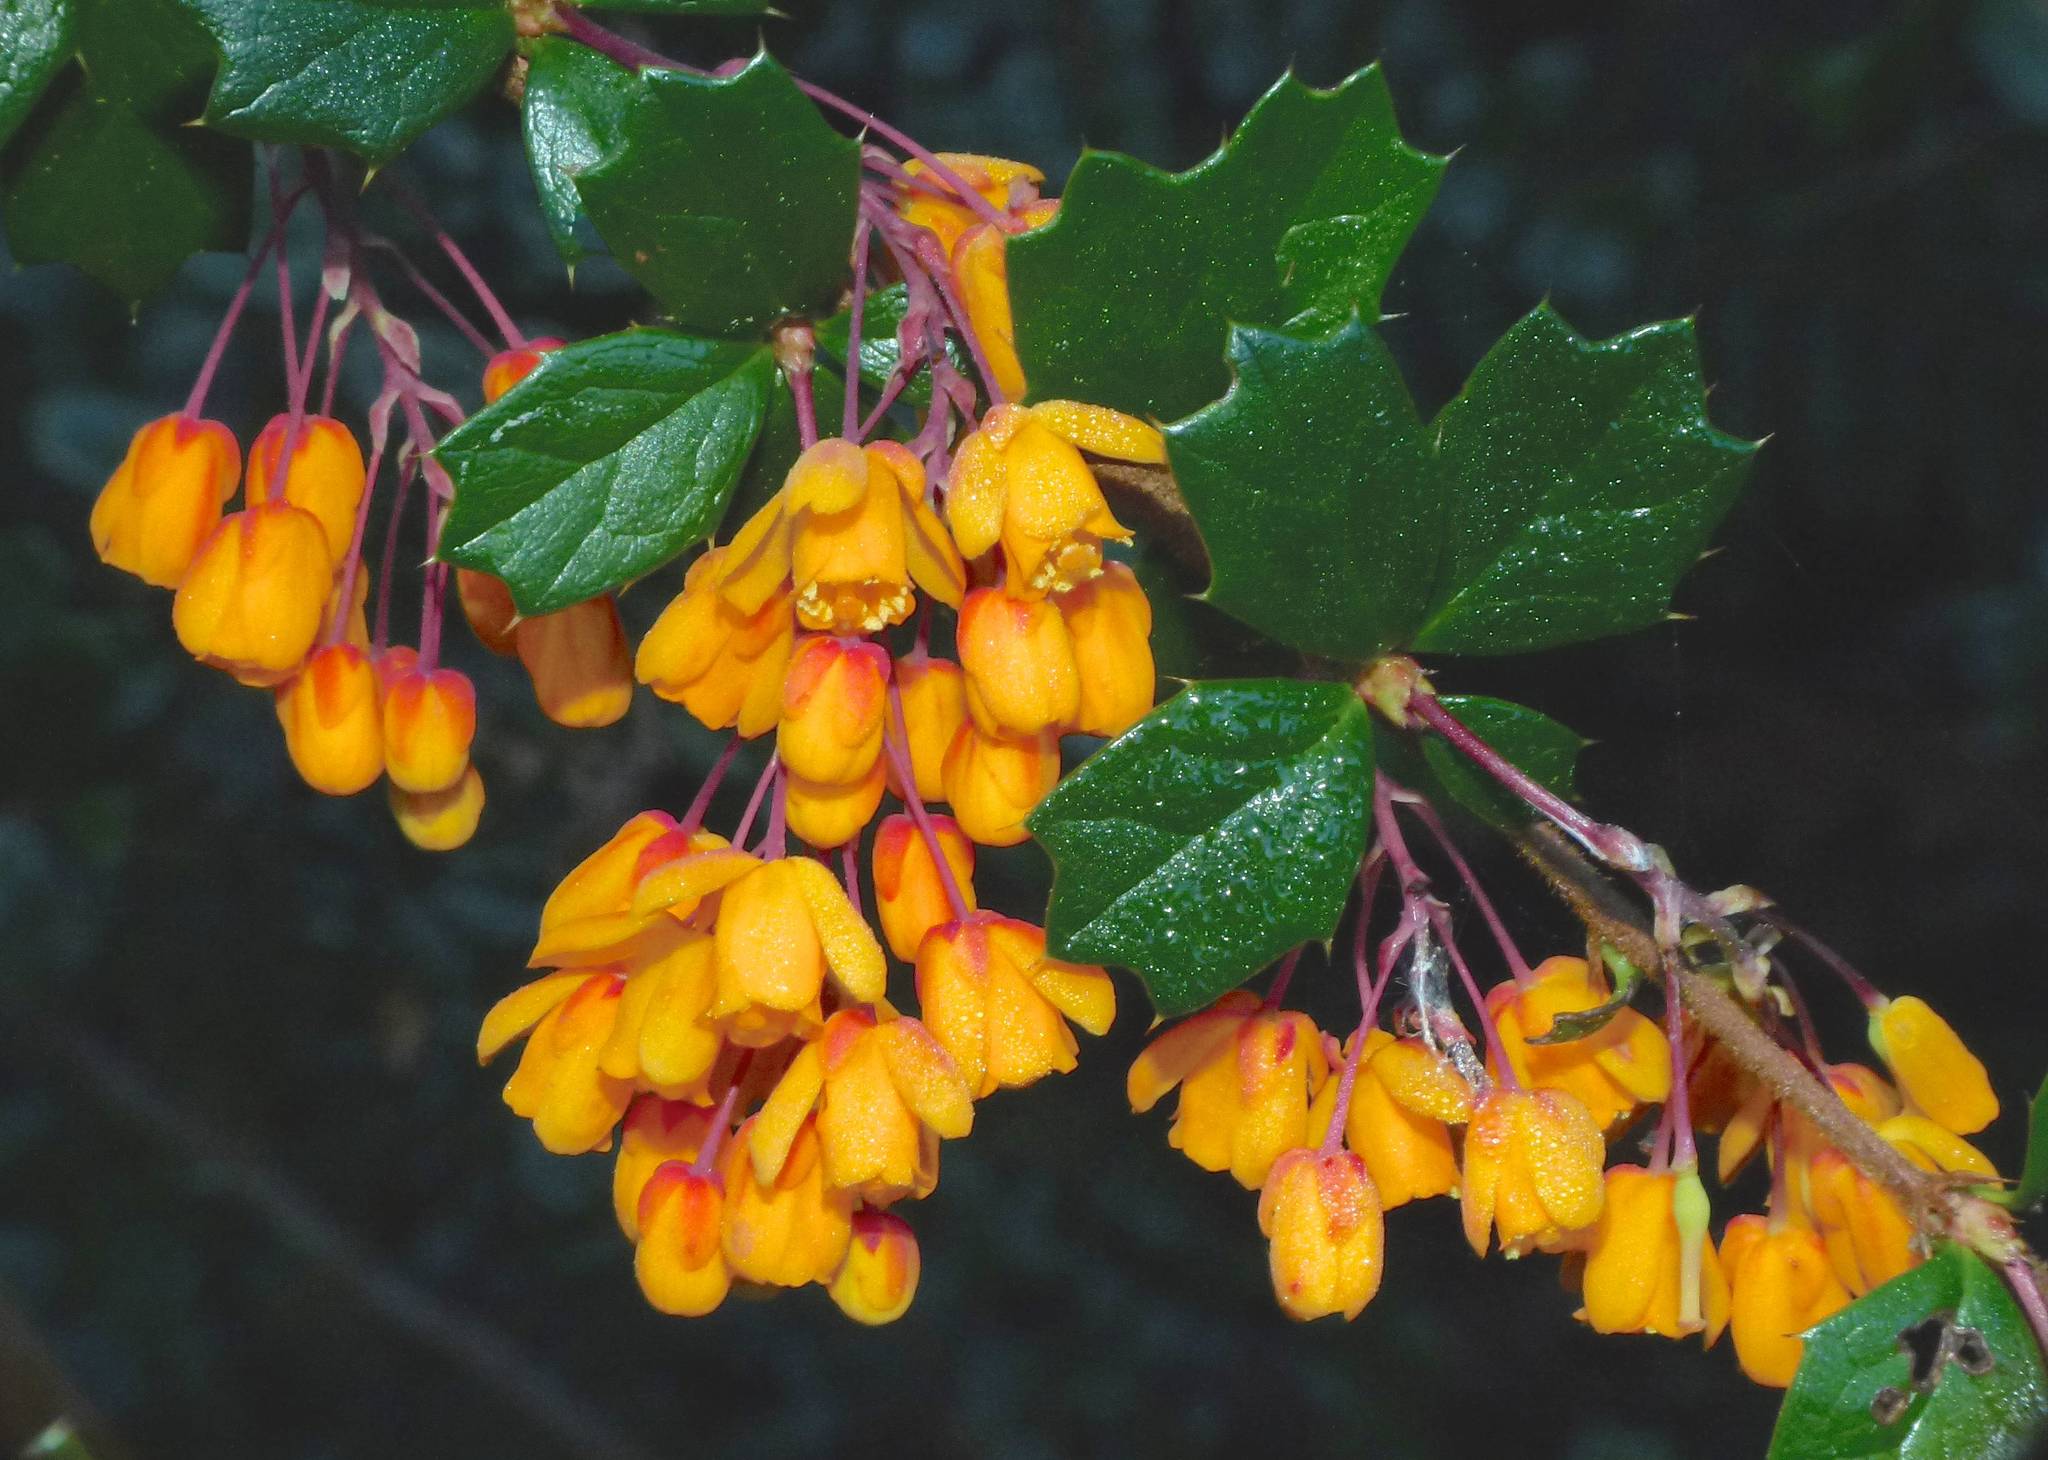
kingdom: Plantae
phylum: Tracheophyta
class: Magnoliopsida
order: Ranunculales
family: Berberidaceae
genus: Berberis
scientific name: Berberis darwinii
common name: Darwin's barberry
